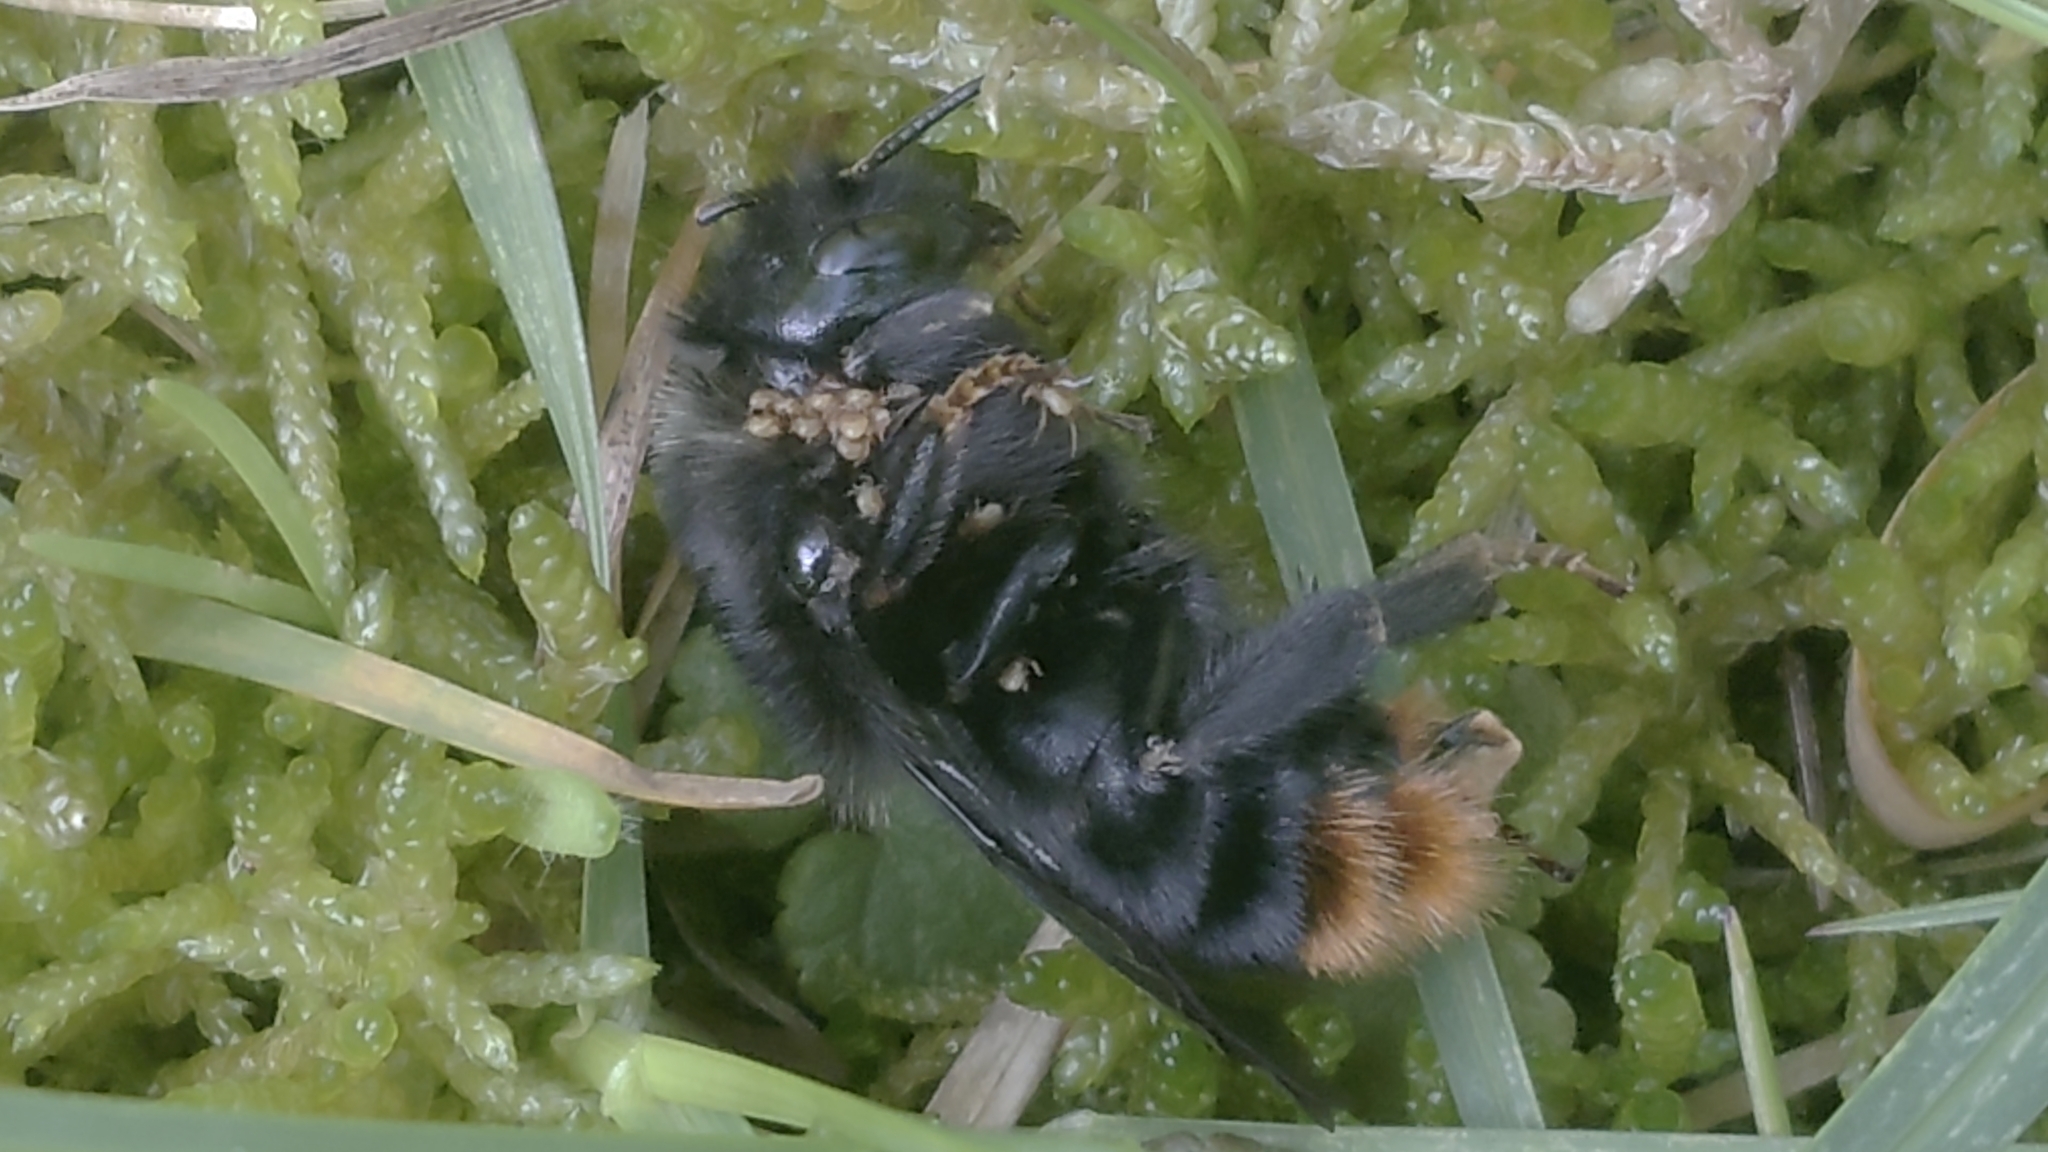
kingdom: Animalia
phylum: Arthropoda
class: Insecta
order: Hymenoptera
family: Apidae
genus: Bombus
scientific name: Bombus lapidarius
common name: Large red-tailed humble-bee
